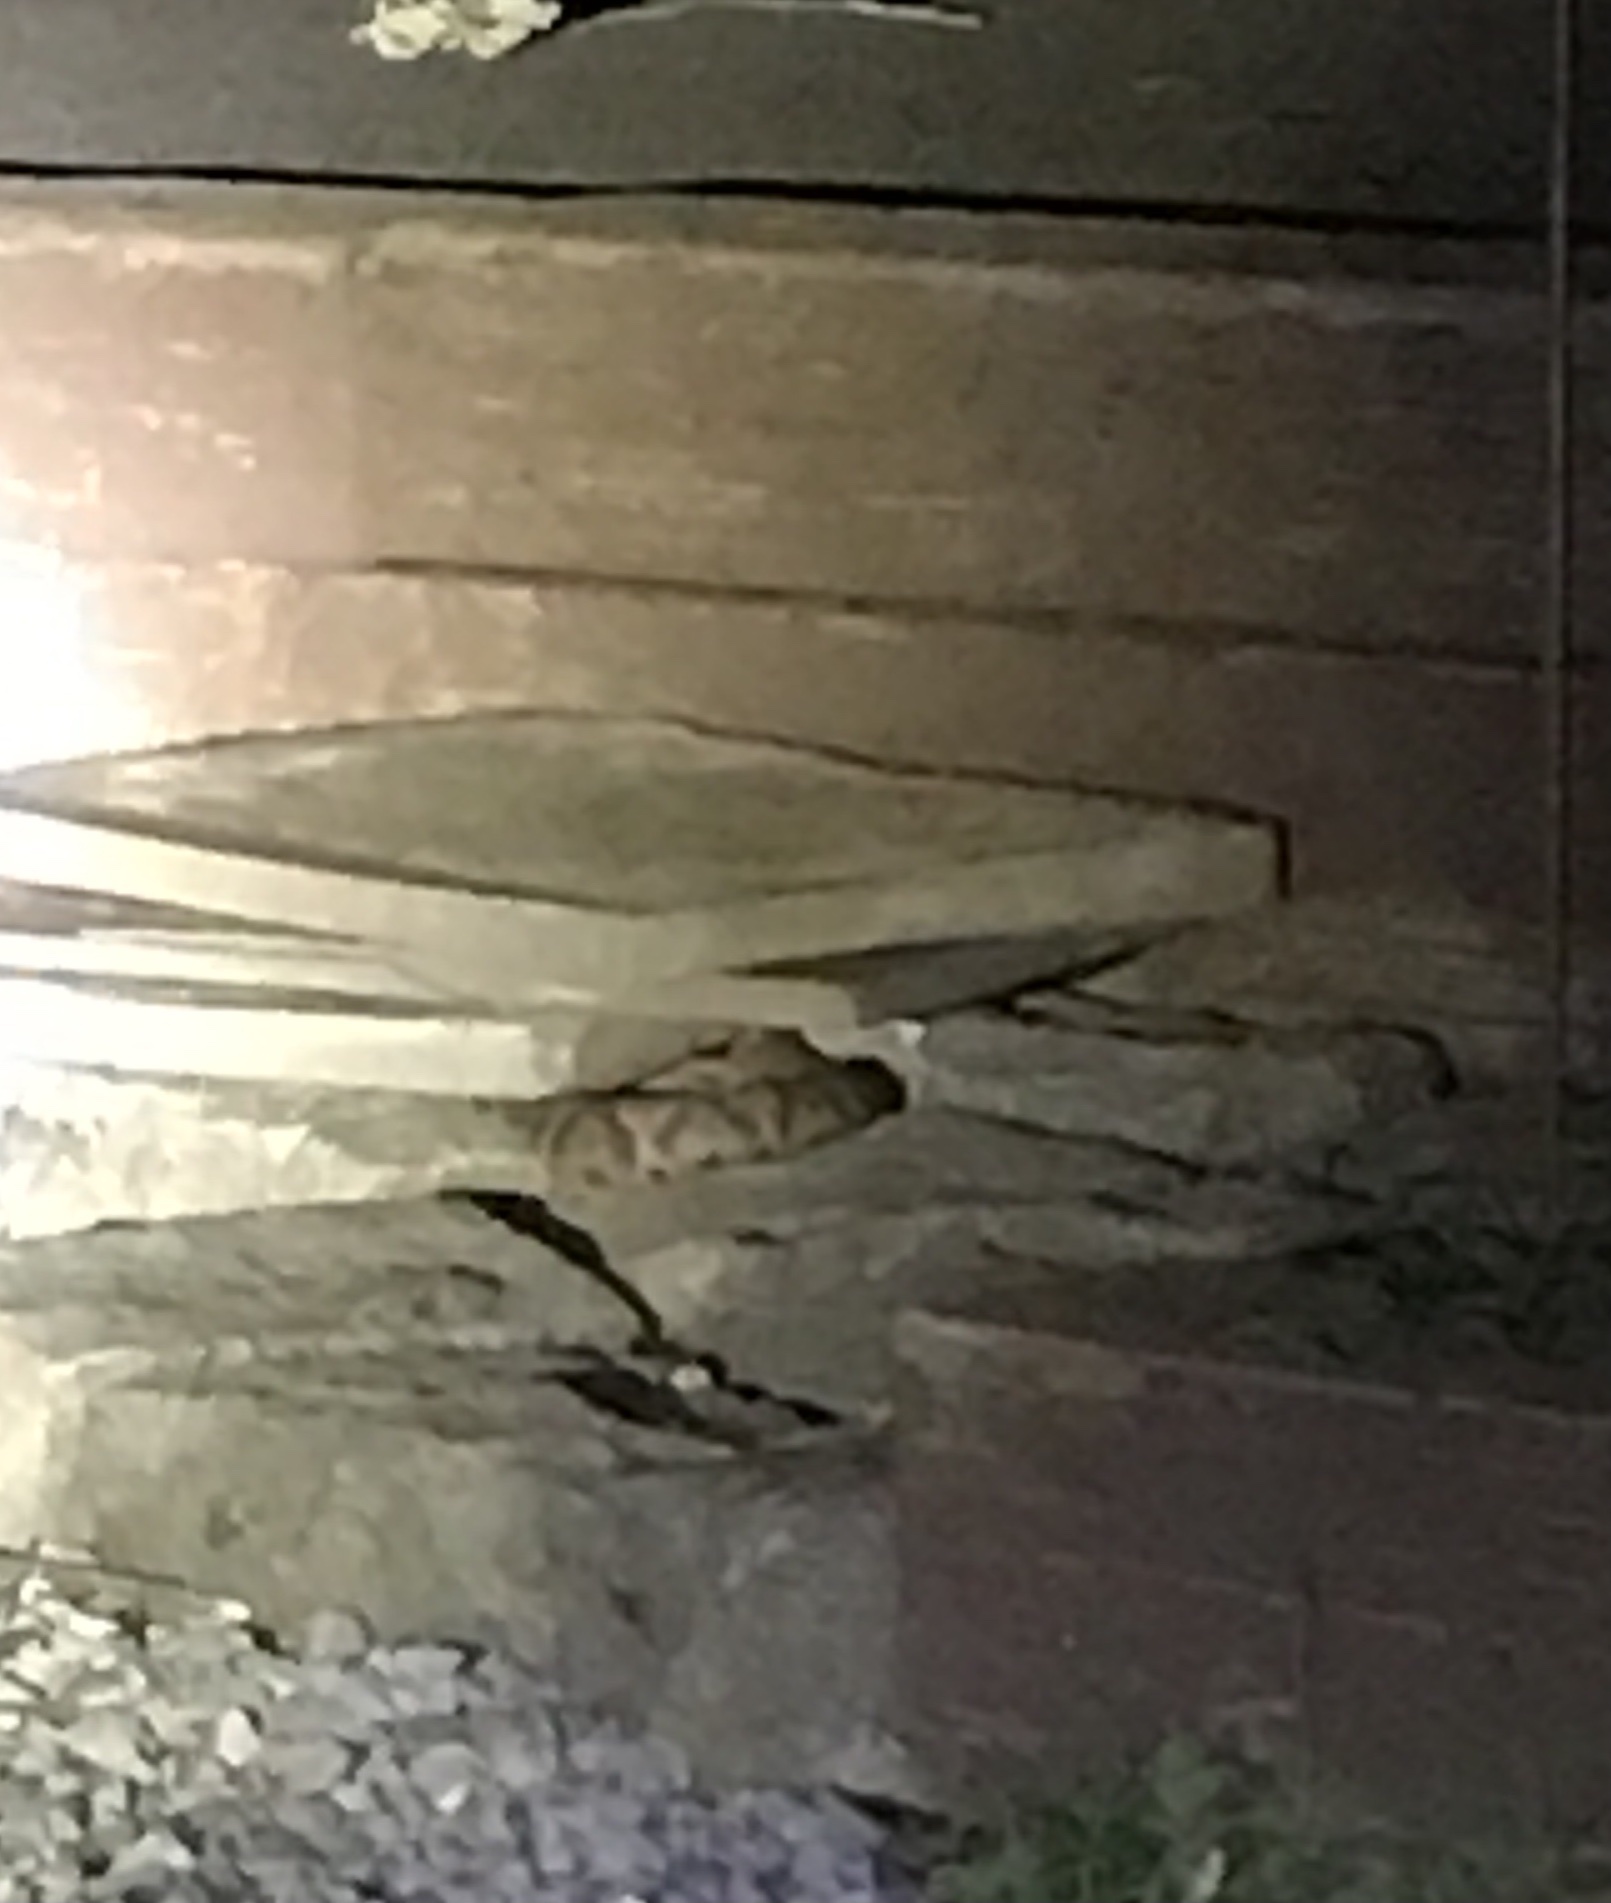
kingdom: Animalia
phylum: Chordata
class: Squamata
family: Viperidae
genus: Agkistrodon
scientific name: Agkistrodon contortrix
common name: Northern copperhead
